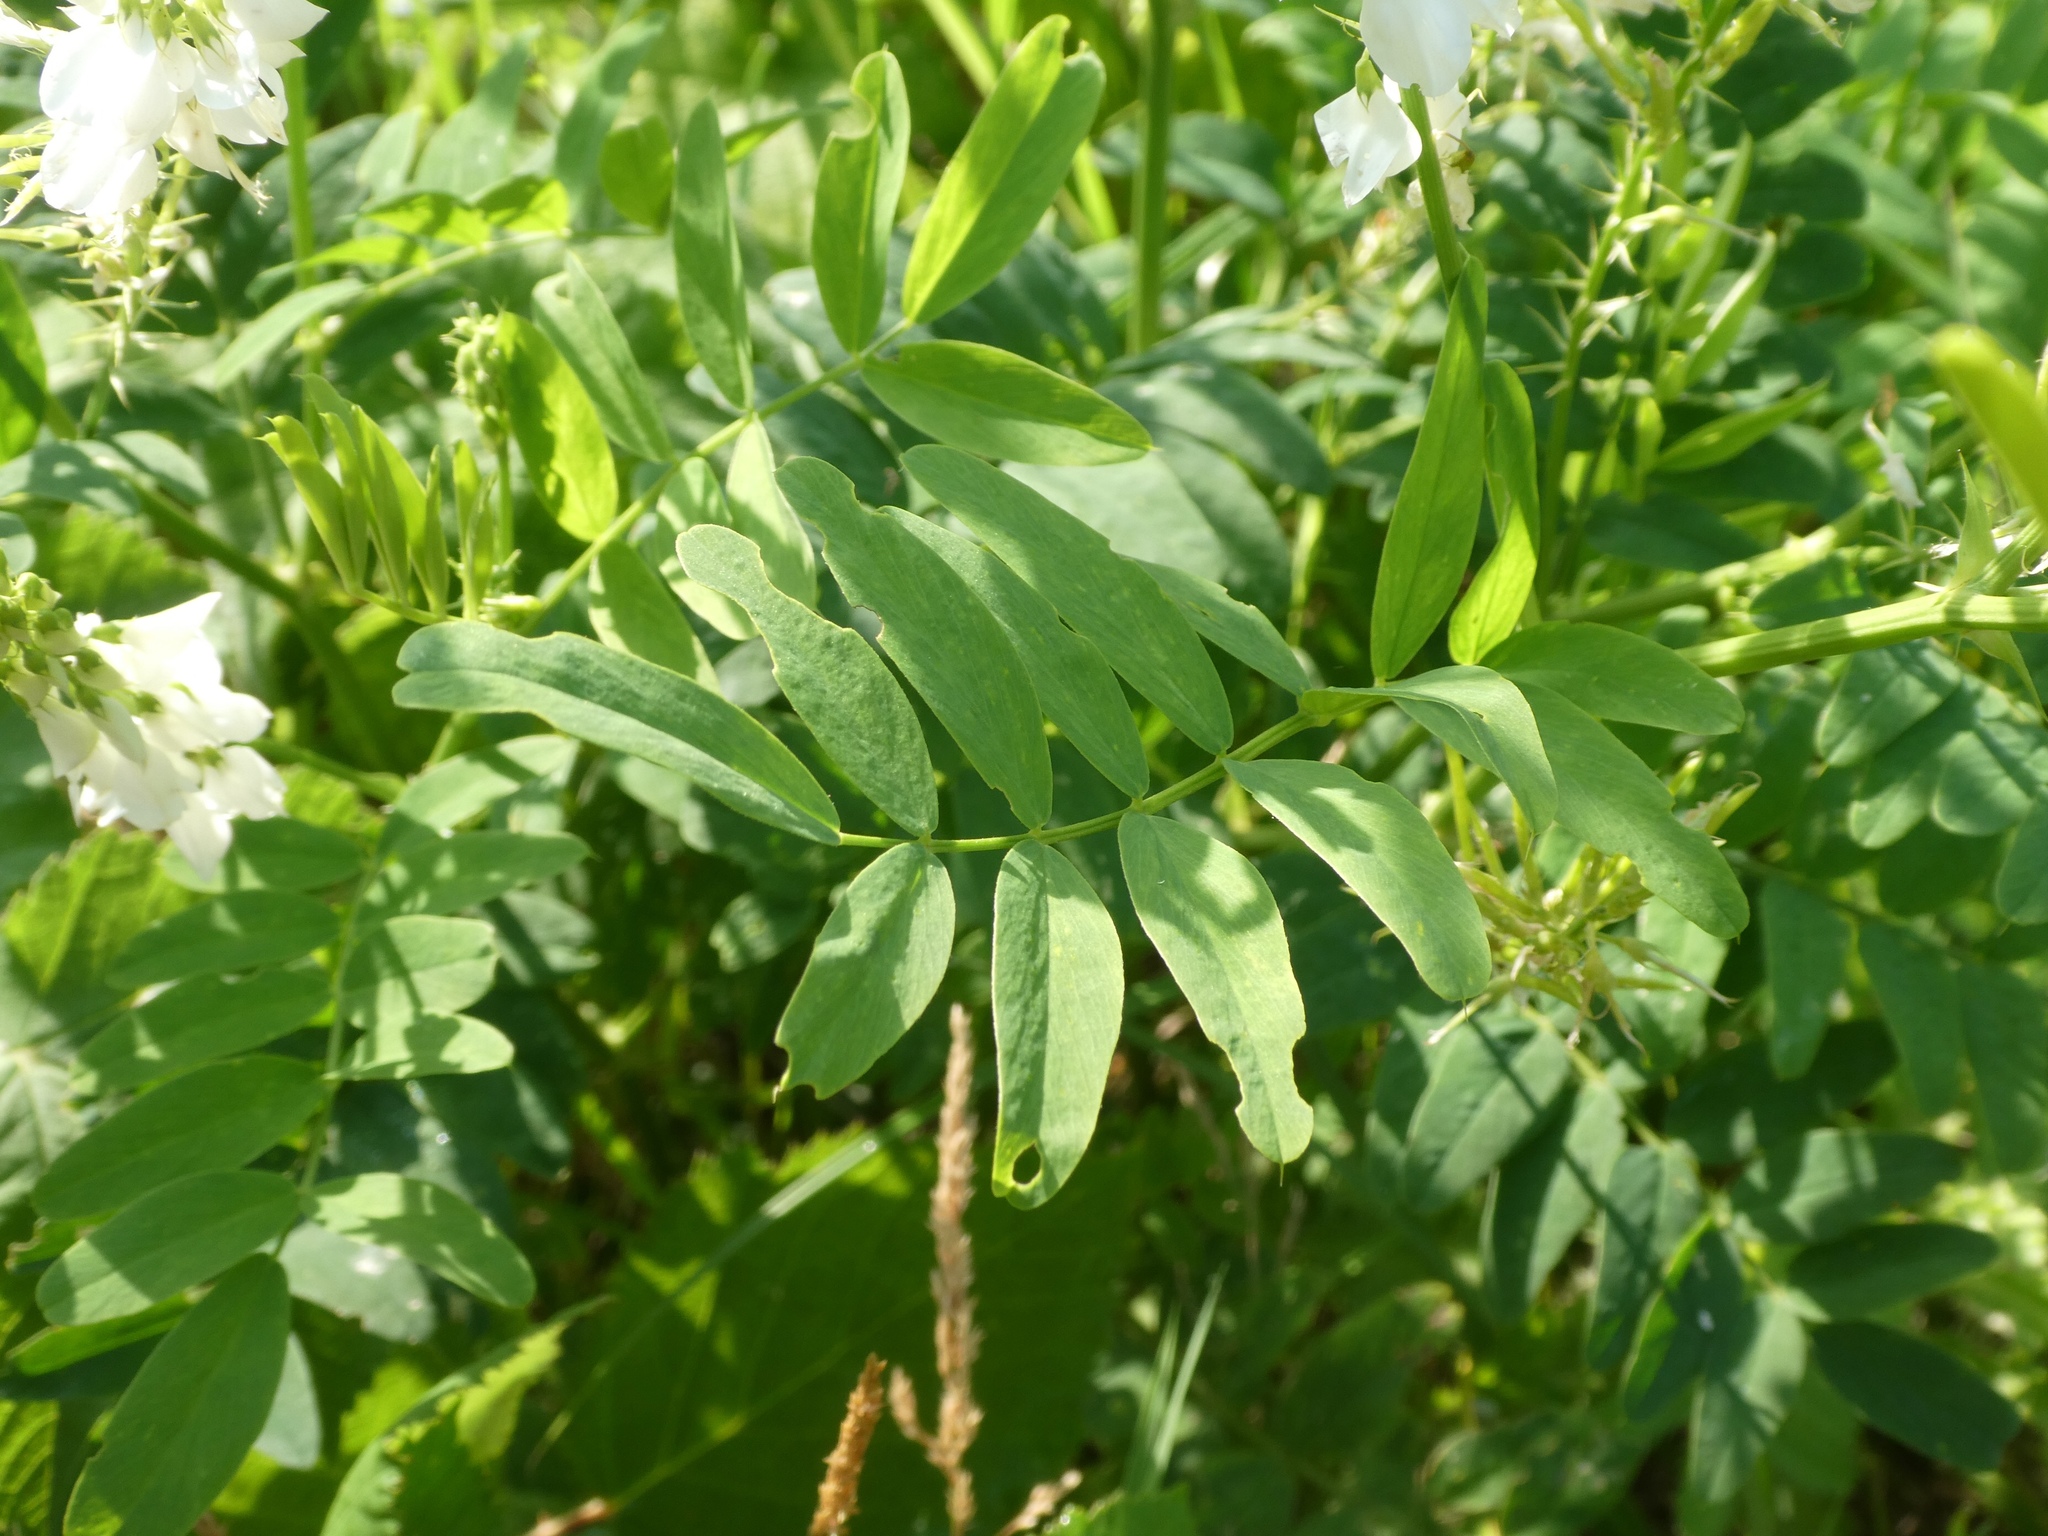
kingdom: Plantae
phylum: Tracheophyta
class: Magnoliopsida
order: Fabales
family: Fabaceae
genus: Galega
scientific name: Galega officinalis
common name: Goat's-rue
